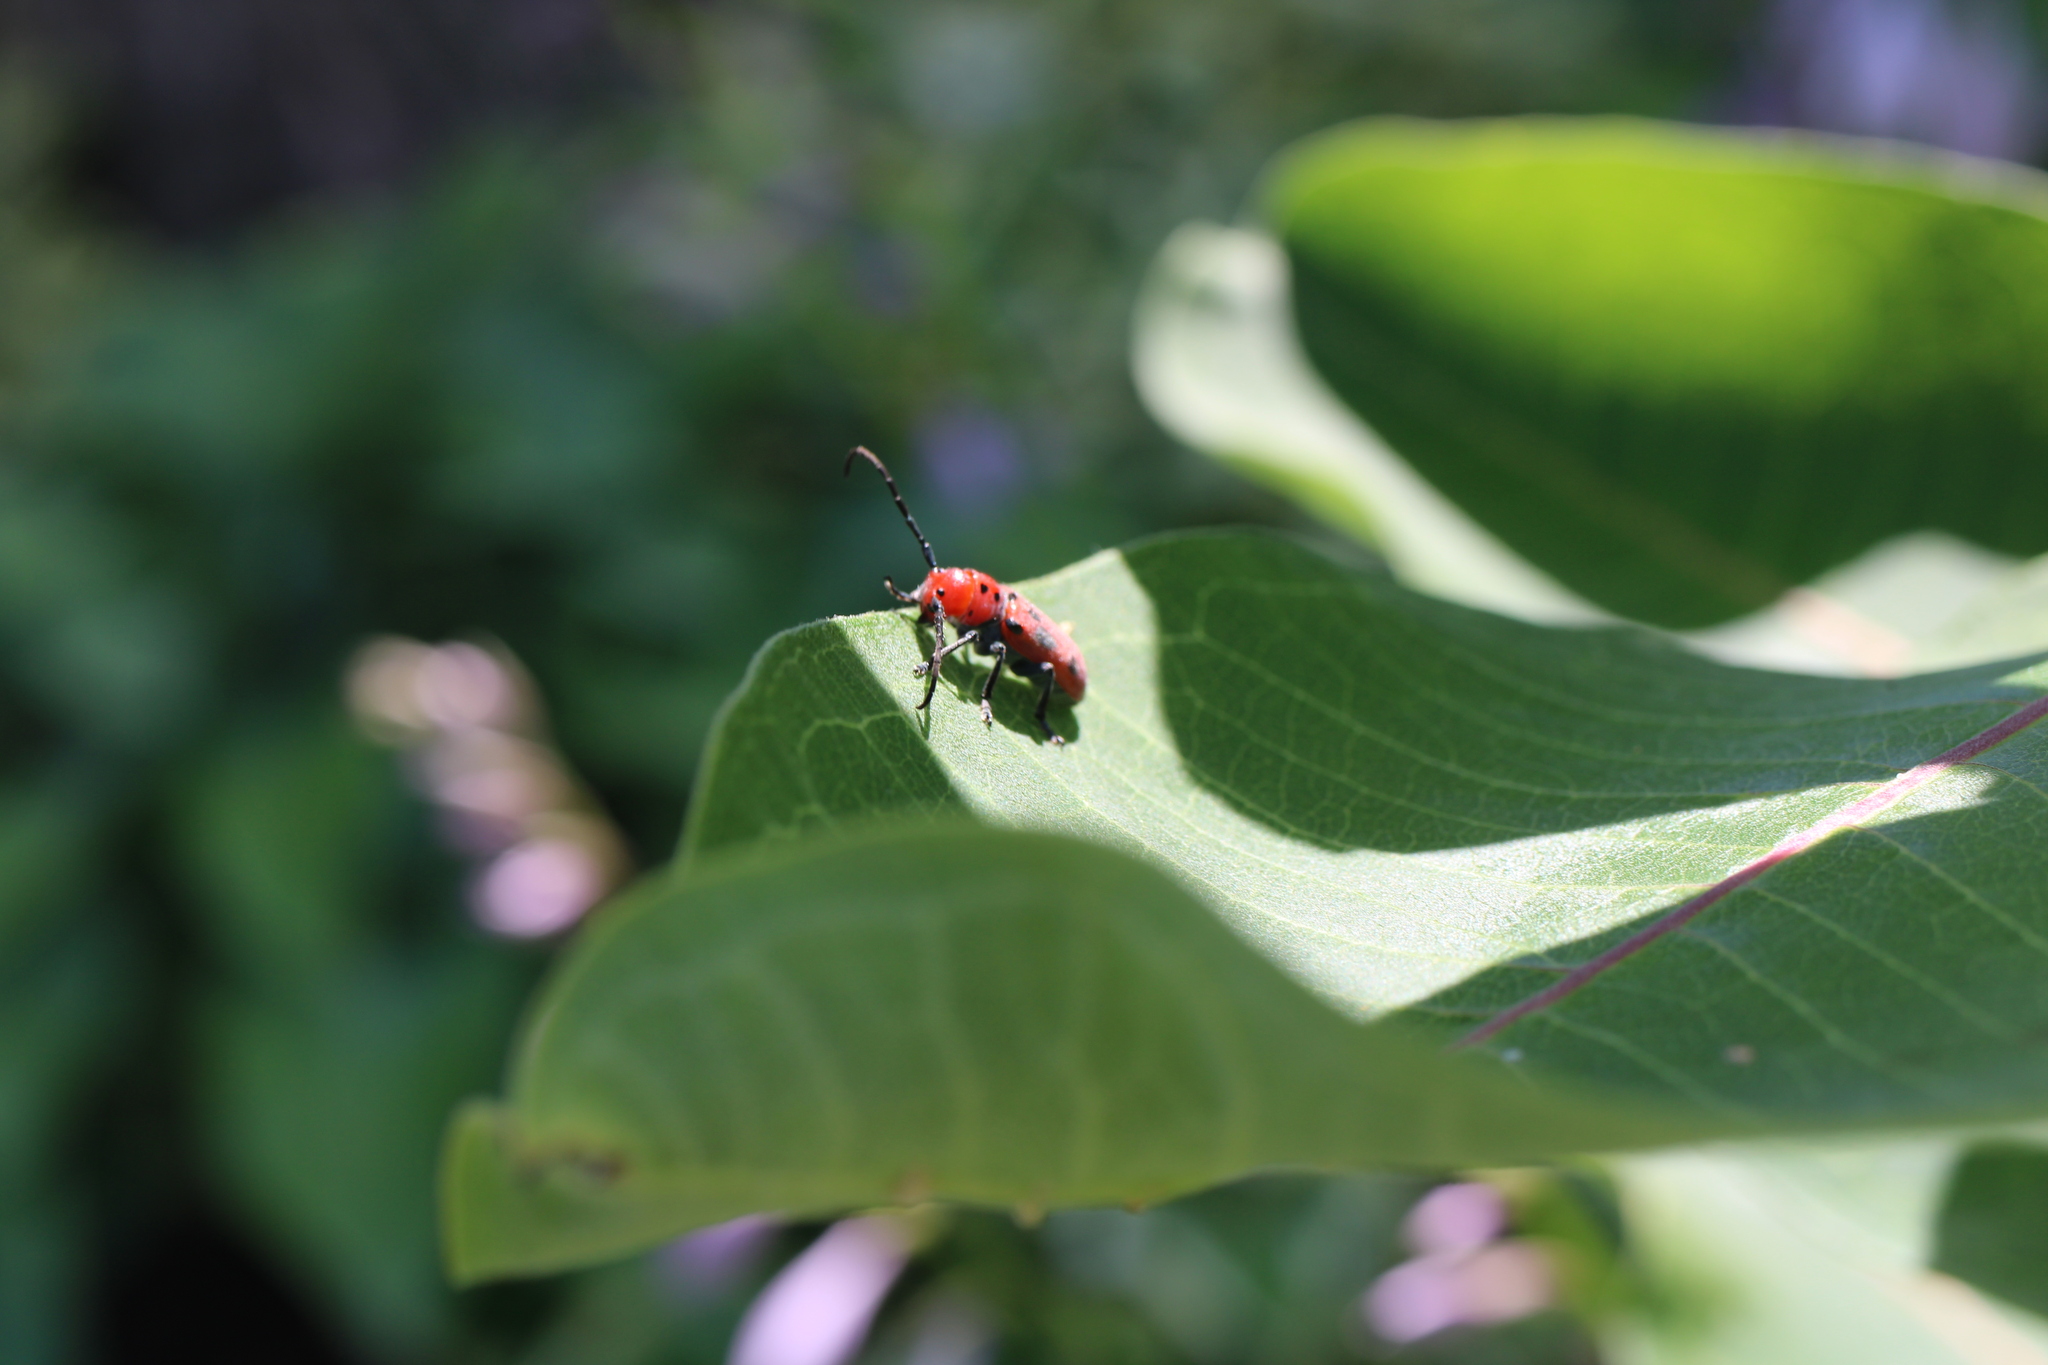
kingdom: Animalia
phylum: Arthropoda
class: Insecta
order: Coleoptera
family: Cerambycidae
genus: Tetraopes
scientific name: Tetraopes tetrophthalmus
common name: Red milkweed beetle
